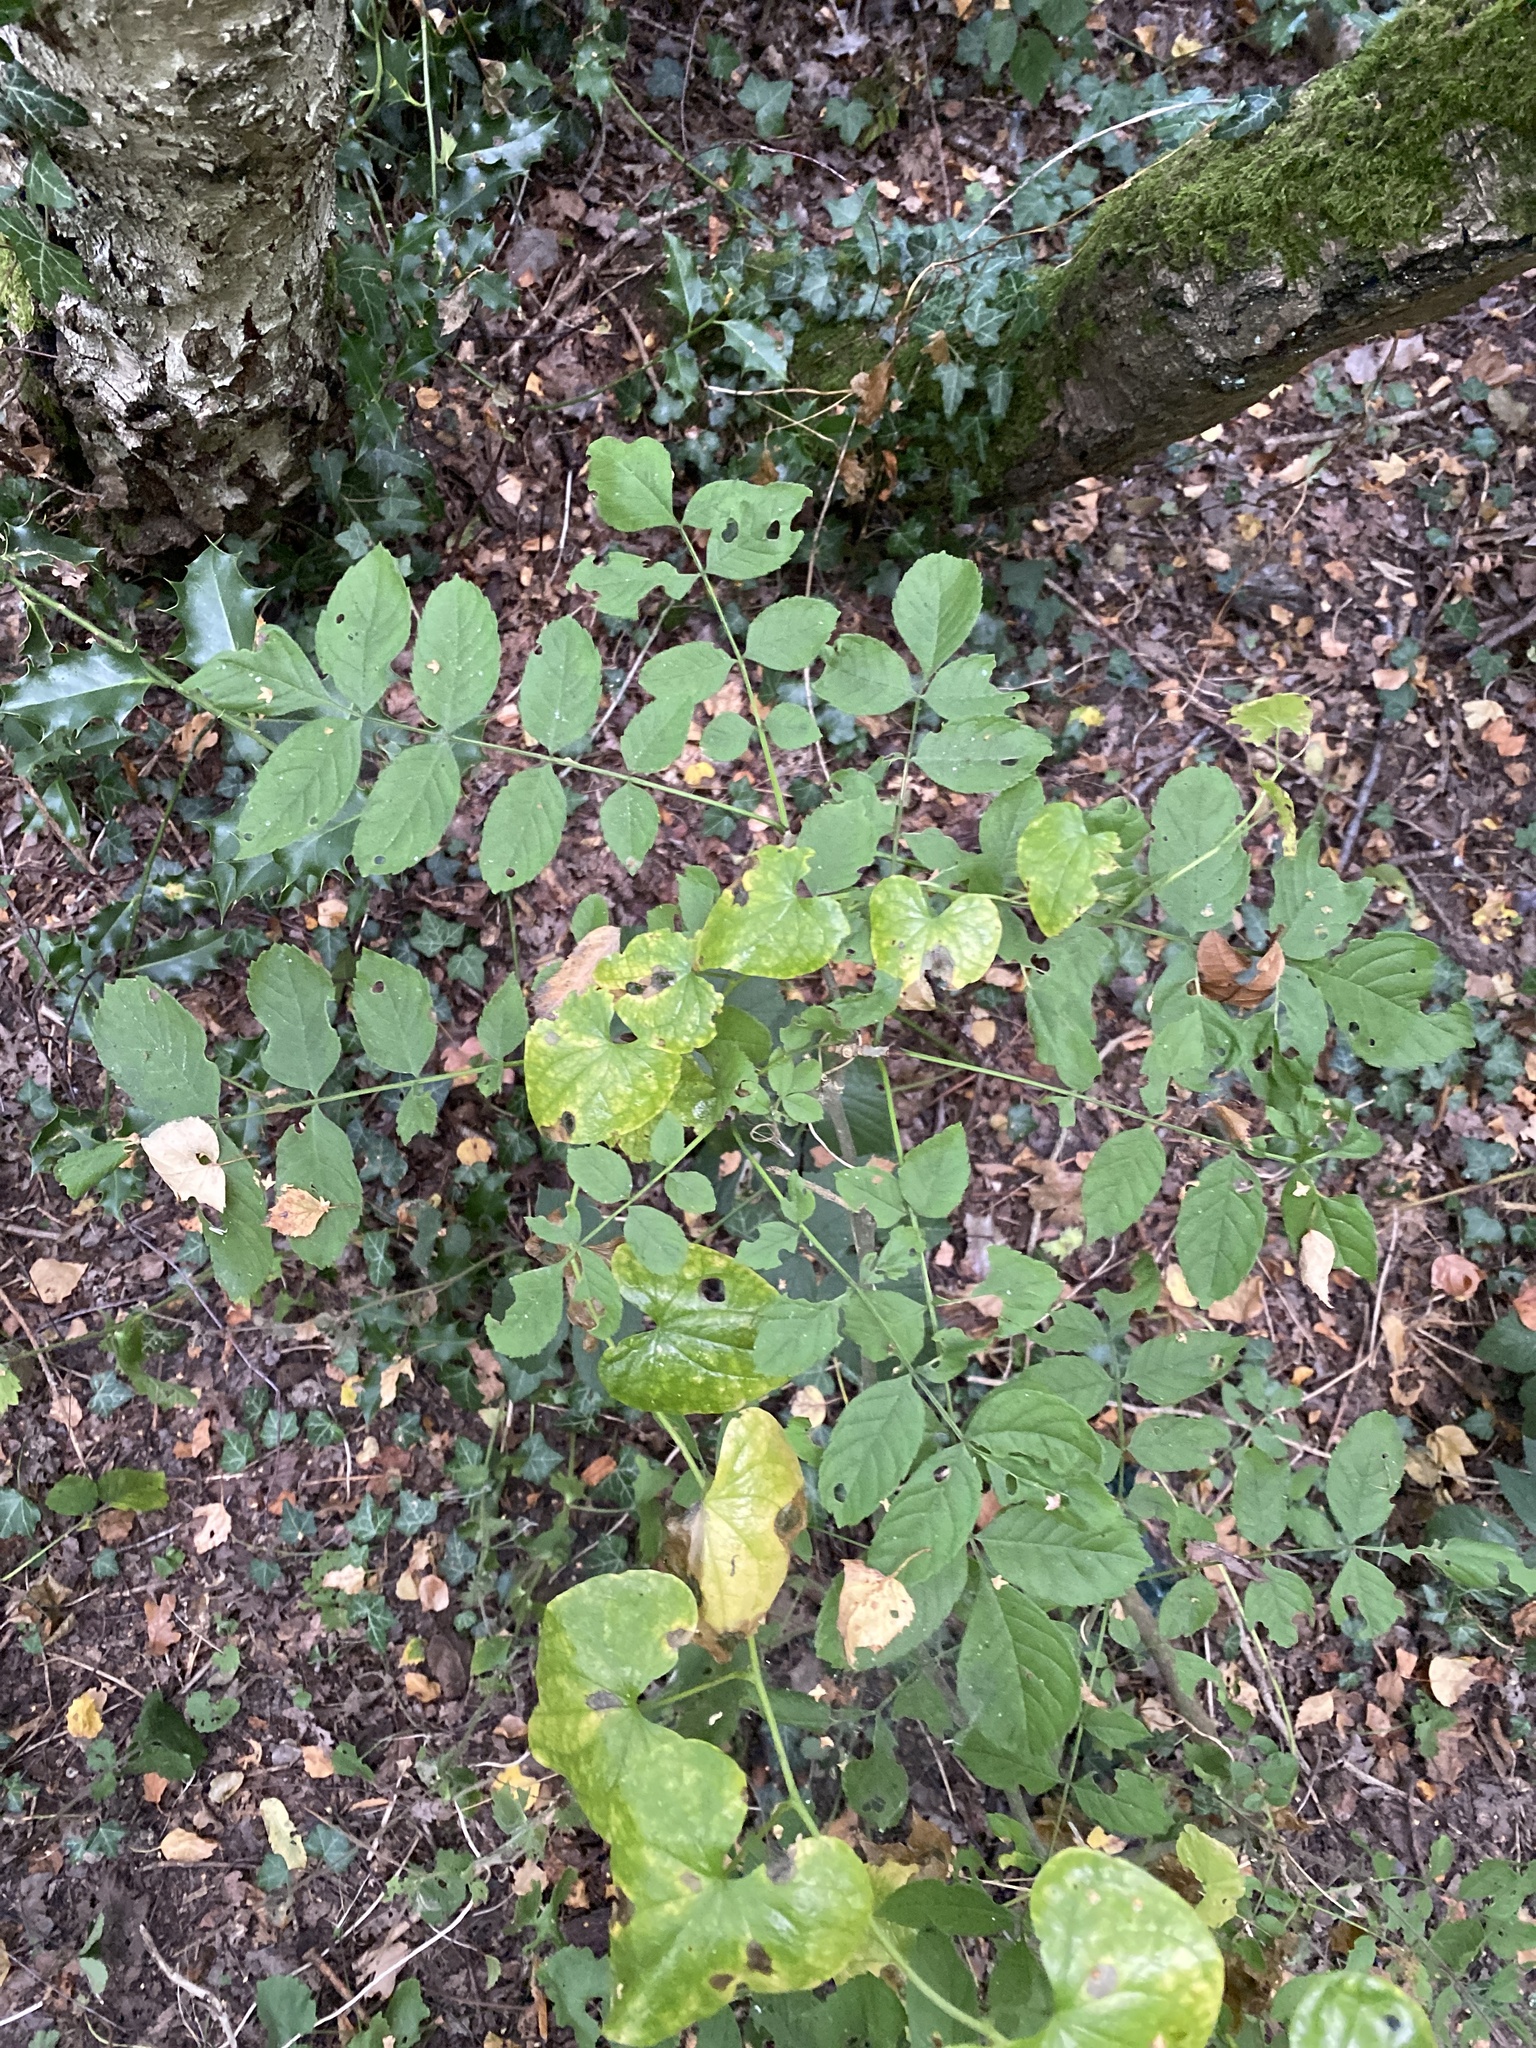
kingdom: Plantae
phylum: Tracheophyta
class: Magnoliopsida
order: Lamiales
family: Oleaceae
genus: Fraxinus
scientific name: Fraxinus excelsior
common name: European ash
